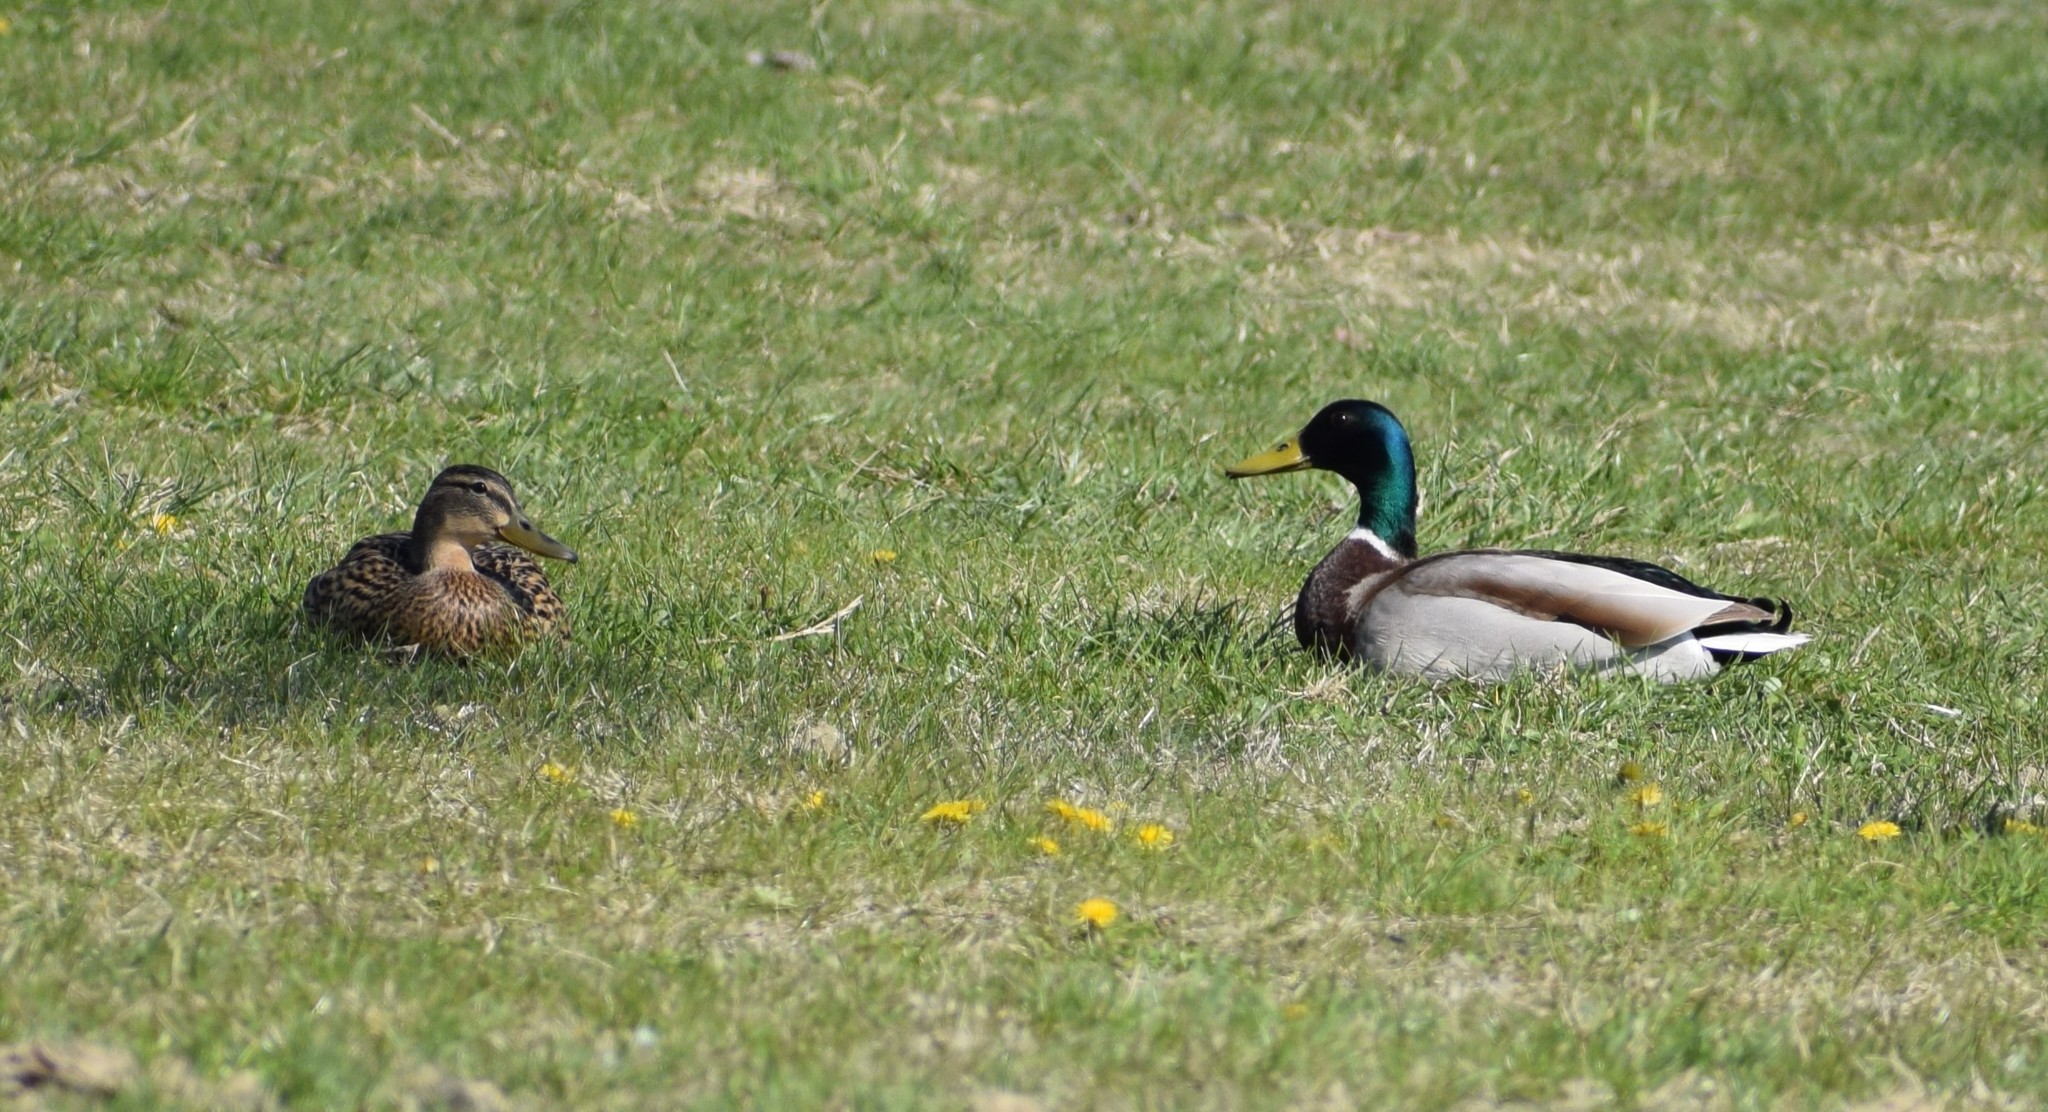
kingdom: Animalia
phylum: Chordata
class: Aves
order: Anseriformes
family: Anatidae
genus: Anas
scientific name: Anas platyrhynchos
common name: Mallard
